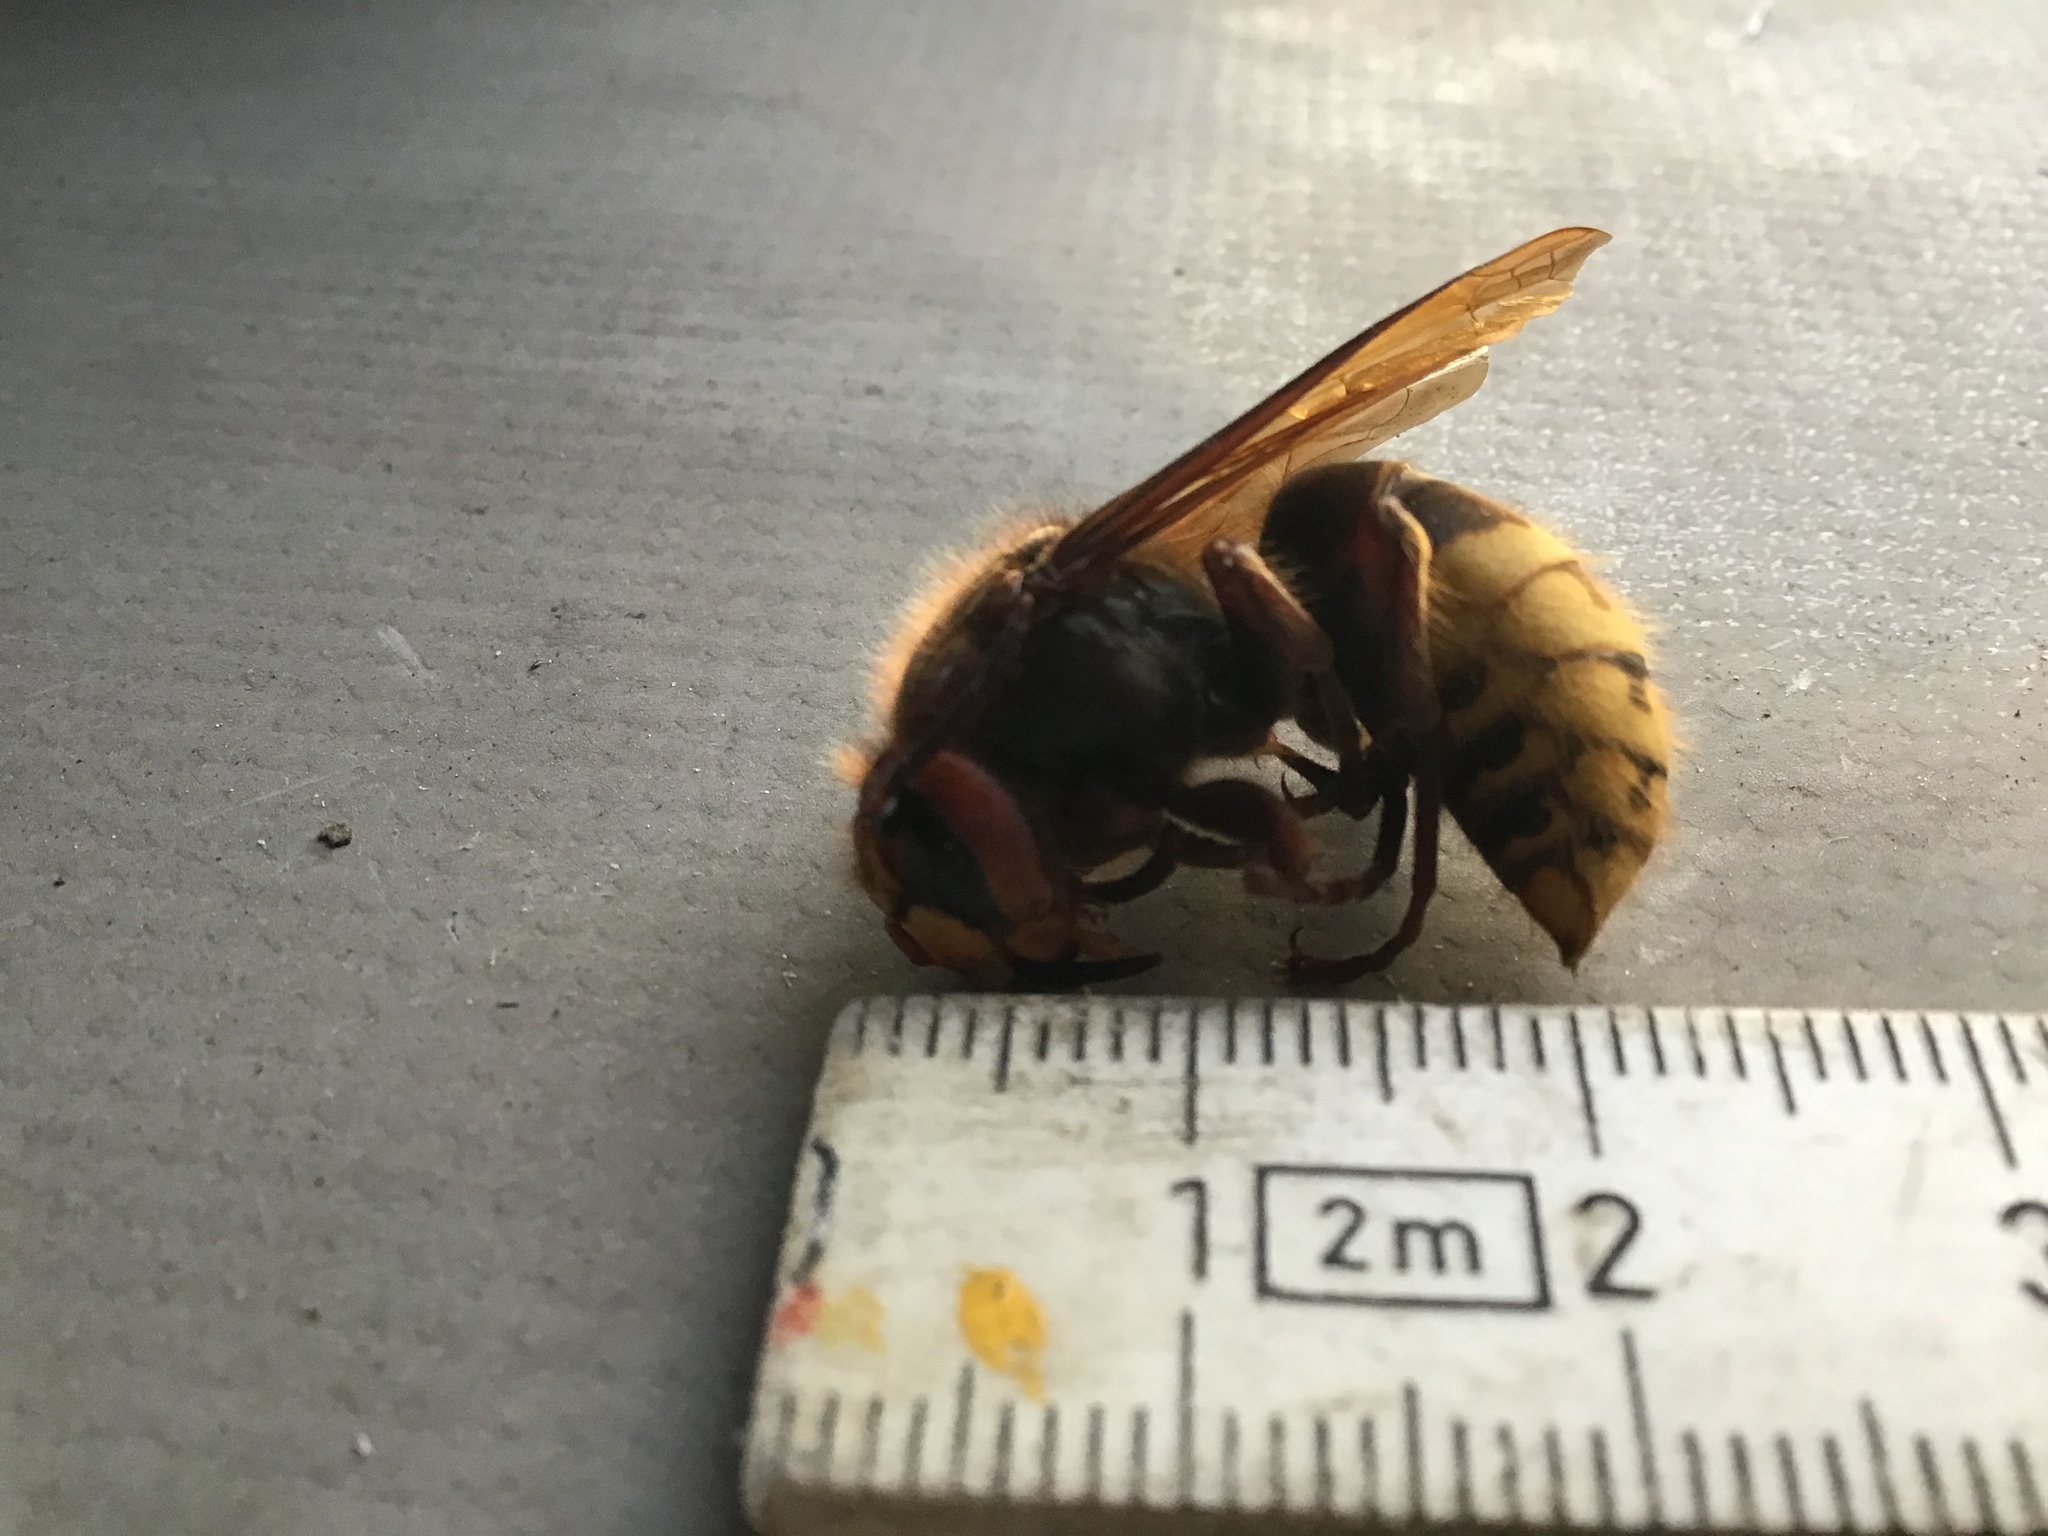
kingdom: Animalia
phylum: Arthropoda
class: Insecta
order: Hymenoptera
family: Vespidae
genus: Vespa
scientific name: Vespa crabro
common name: Hornet
